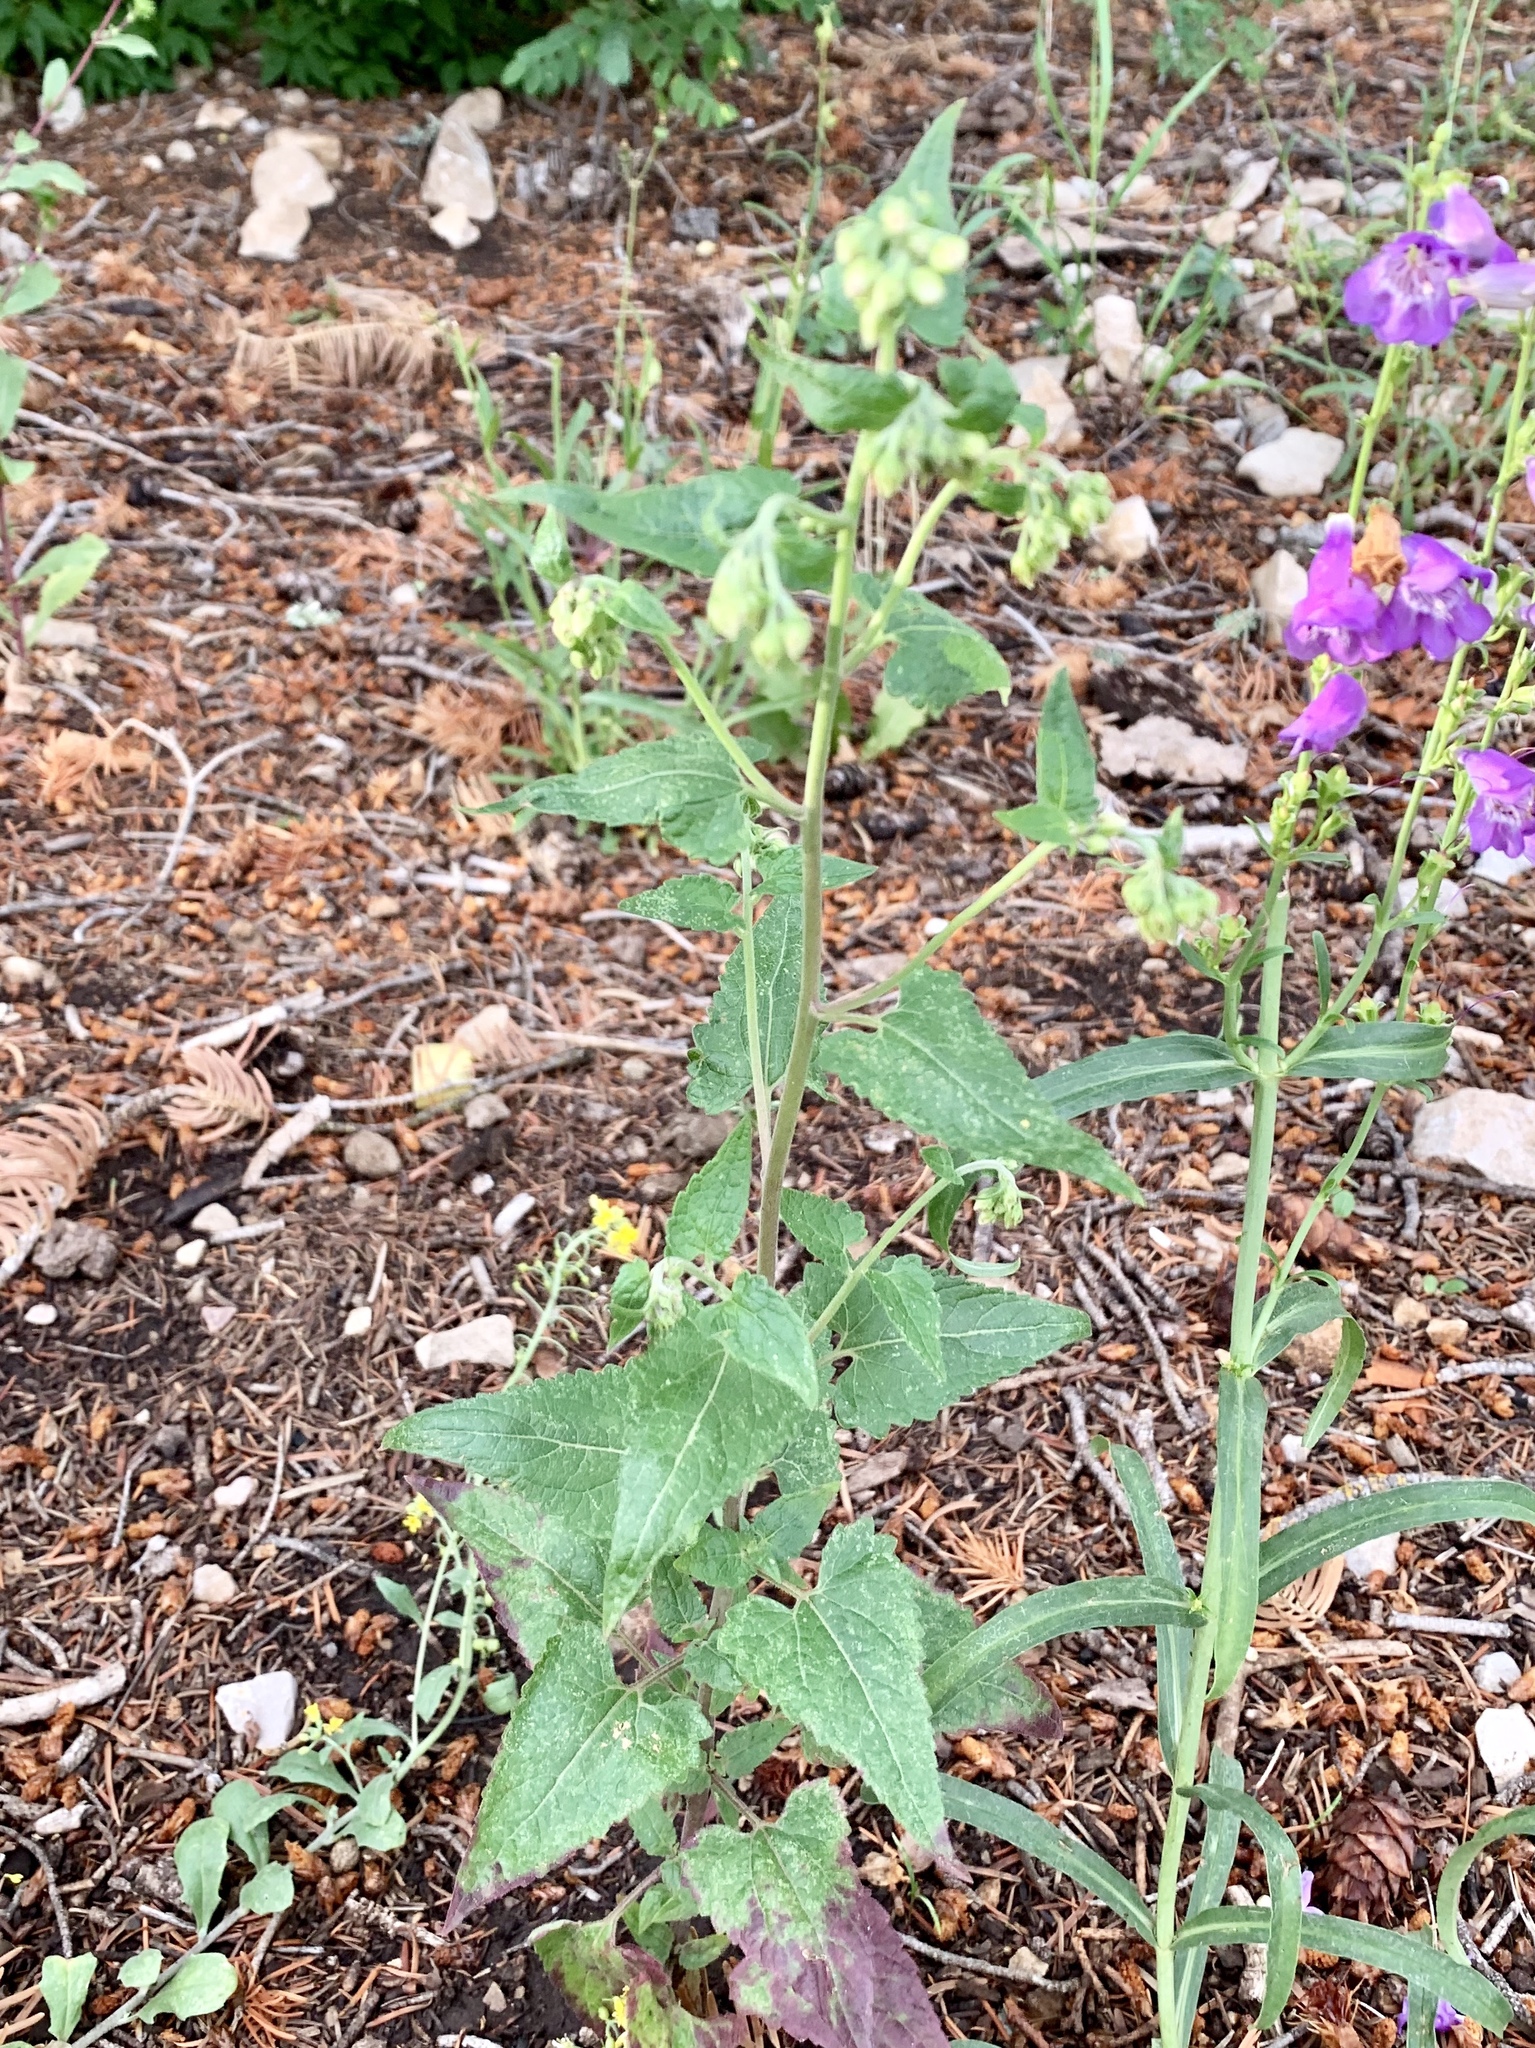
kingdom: Plantae
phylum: Tracheophyta
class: Magnoliopsida
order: Asterales
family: Asteraceae
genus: Brickellia
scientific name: Brickellia grandiflora
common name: Large-flowered brickellia
